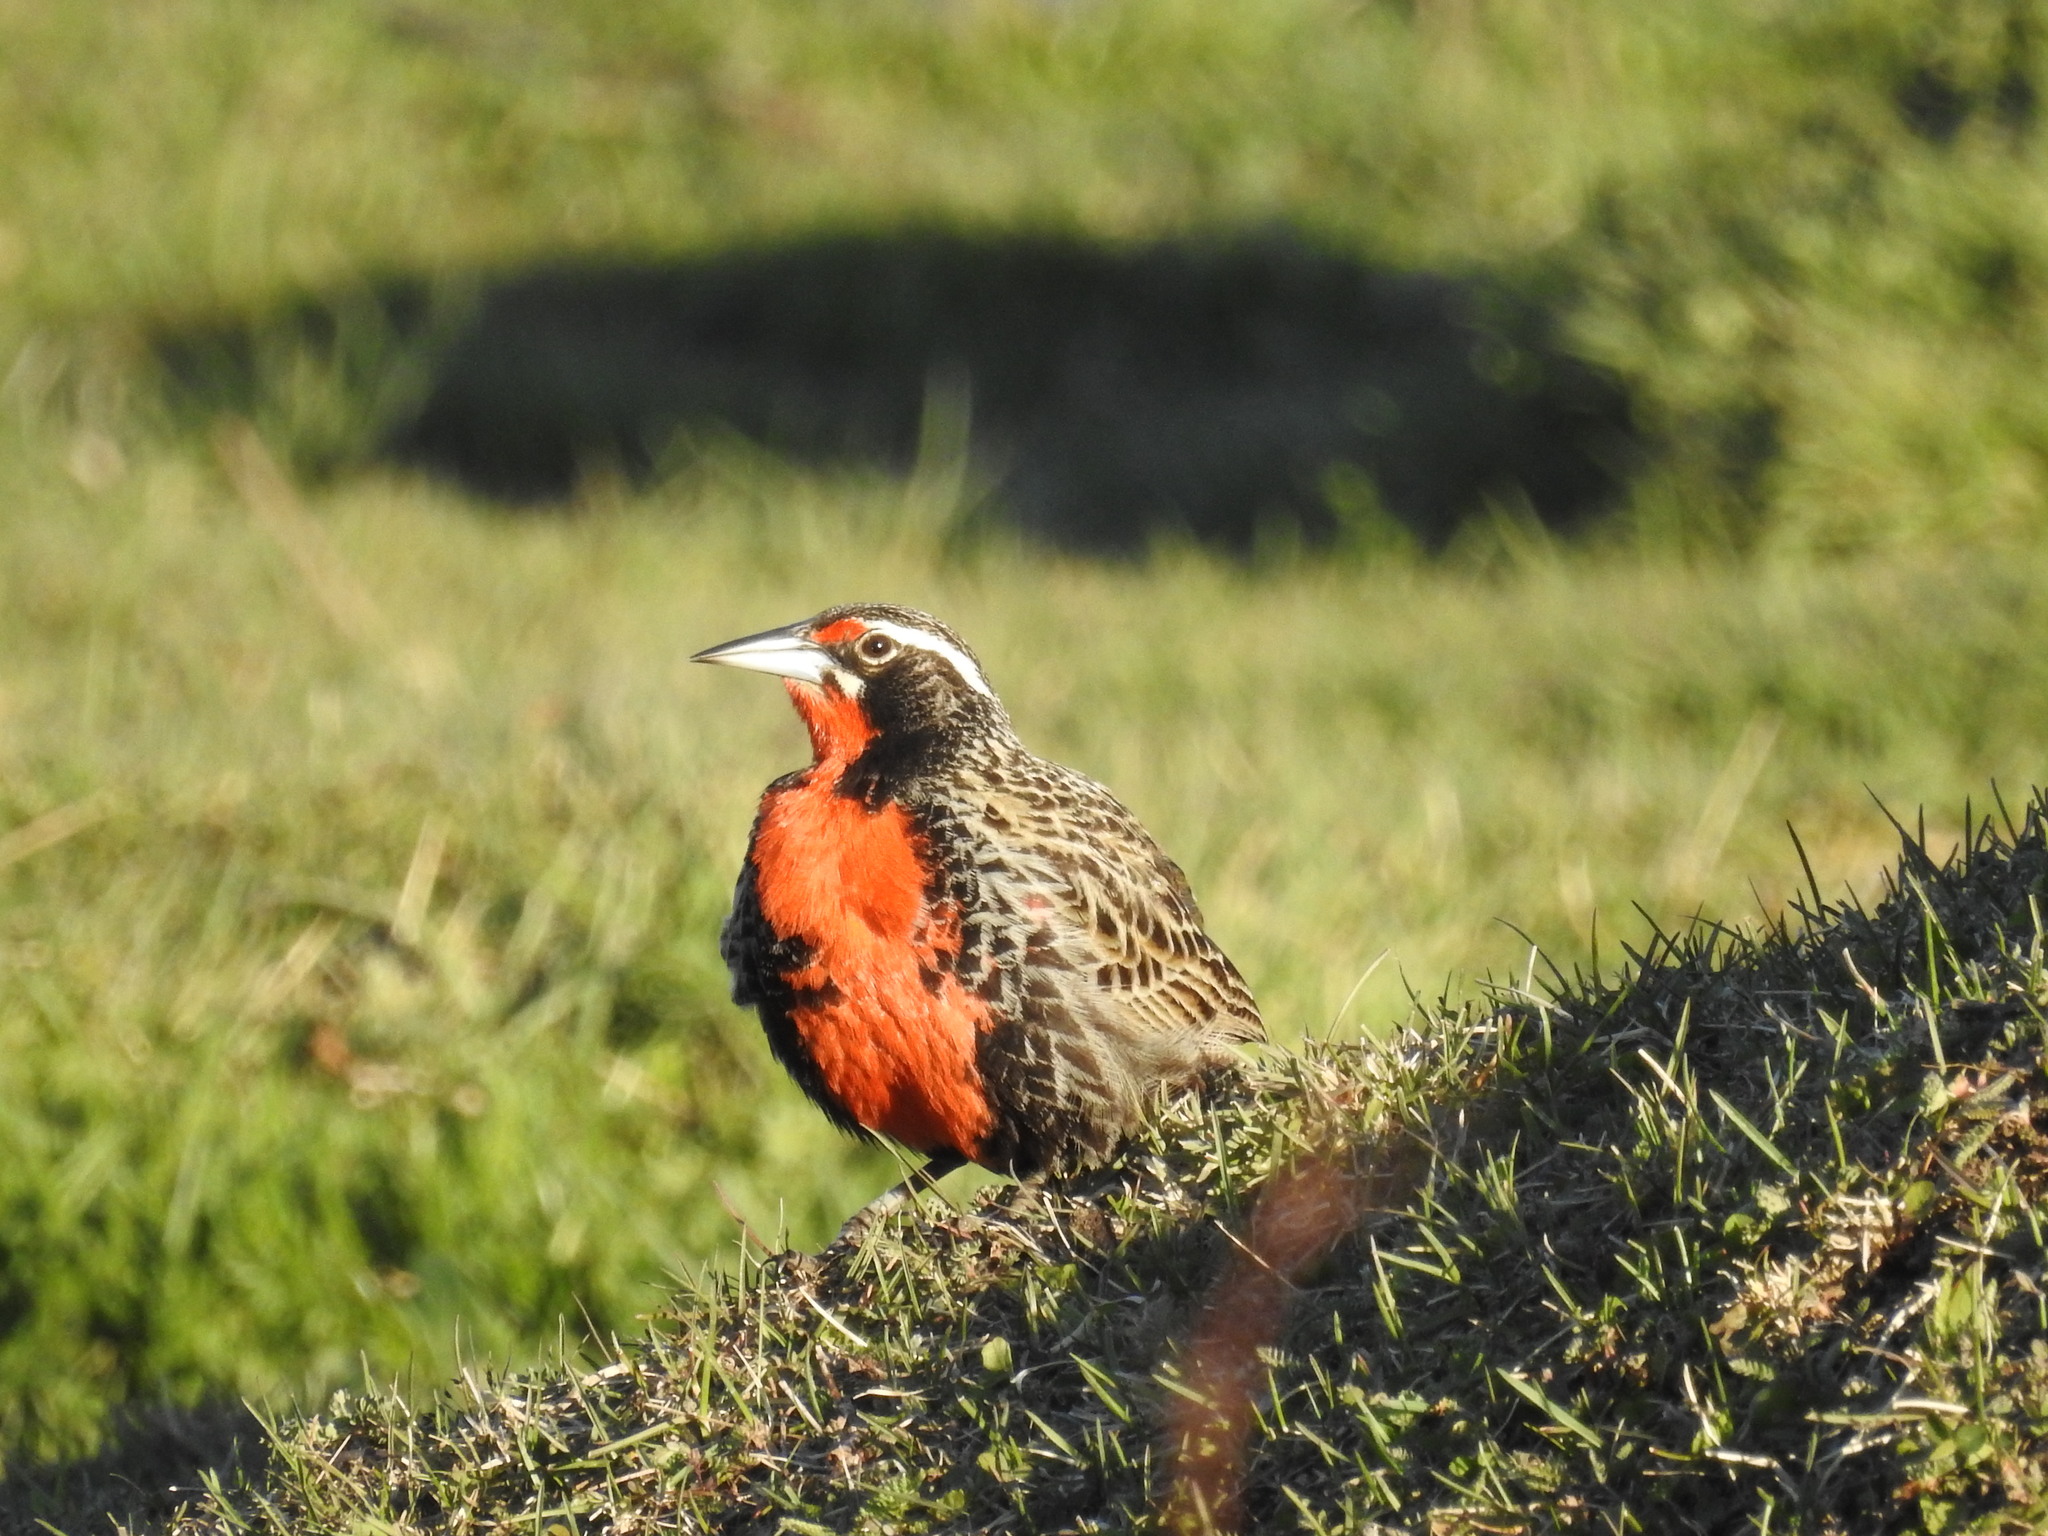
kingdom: Animalia
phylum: Chordata
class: Aves
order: Passeriformes
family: Icteridae
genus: Sturnella
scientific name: Sturnella loyca
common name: Long-tailed meadowlark
